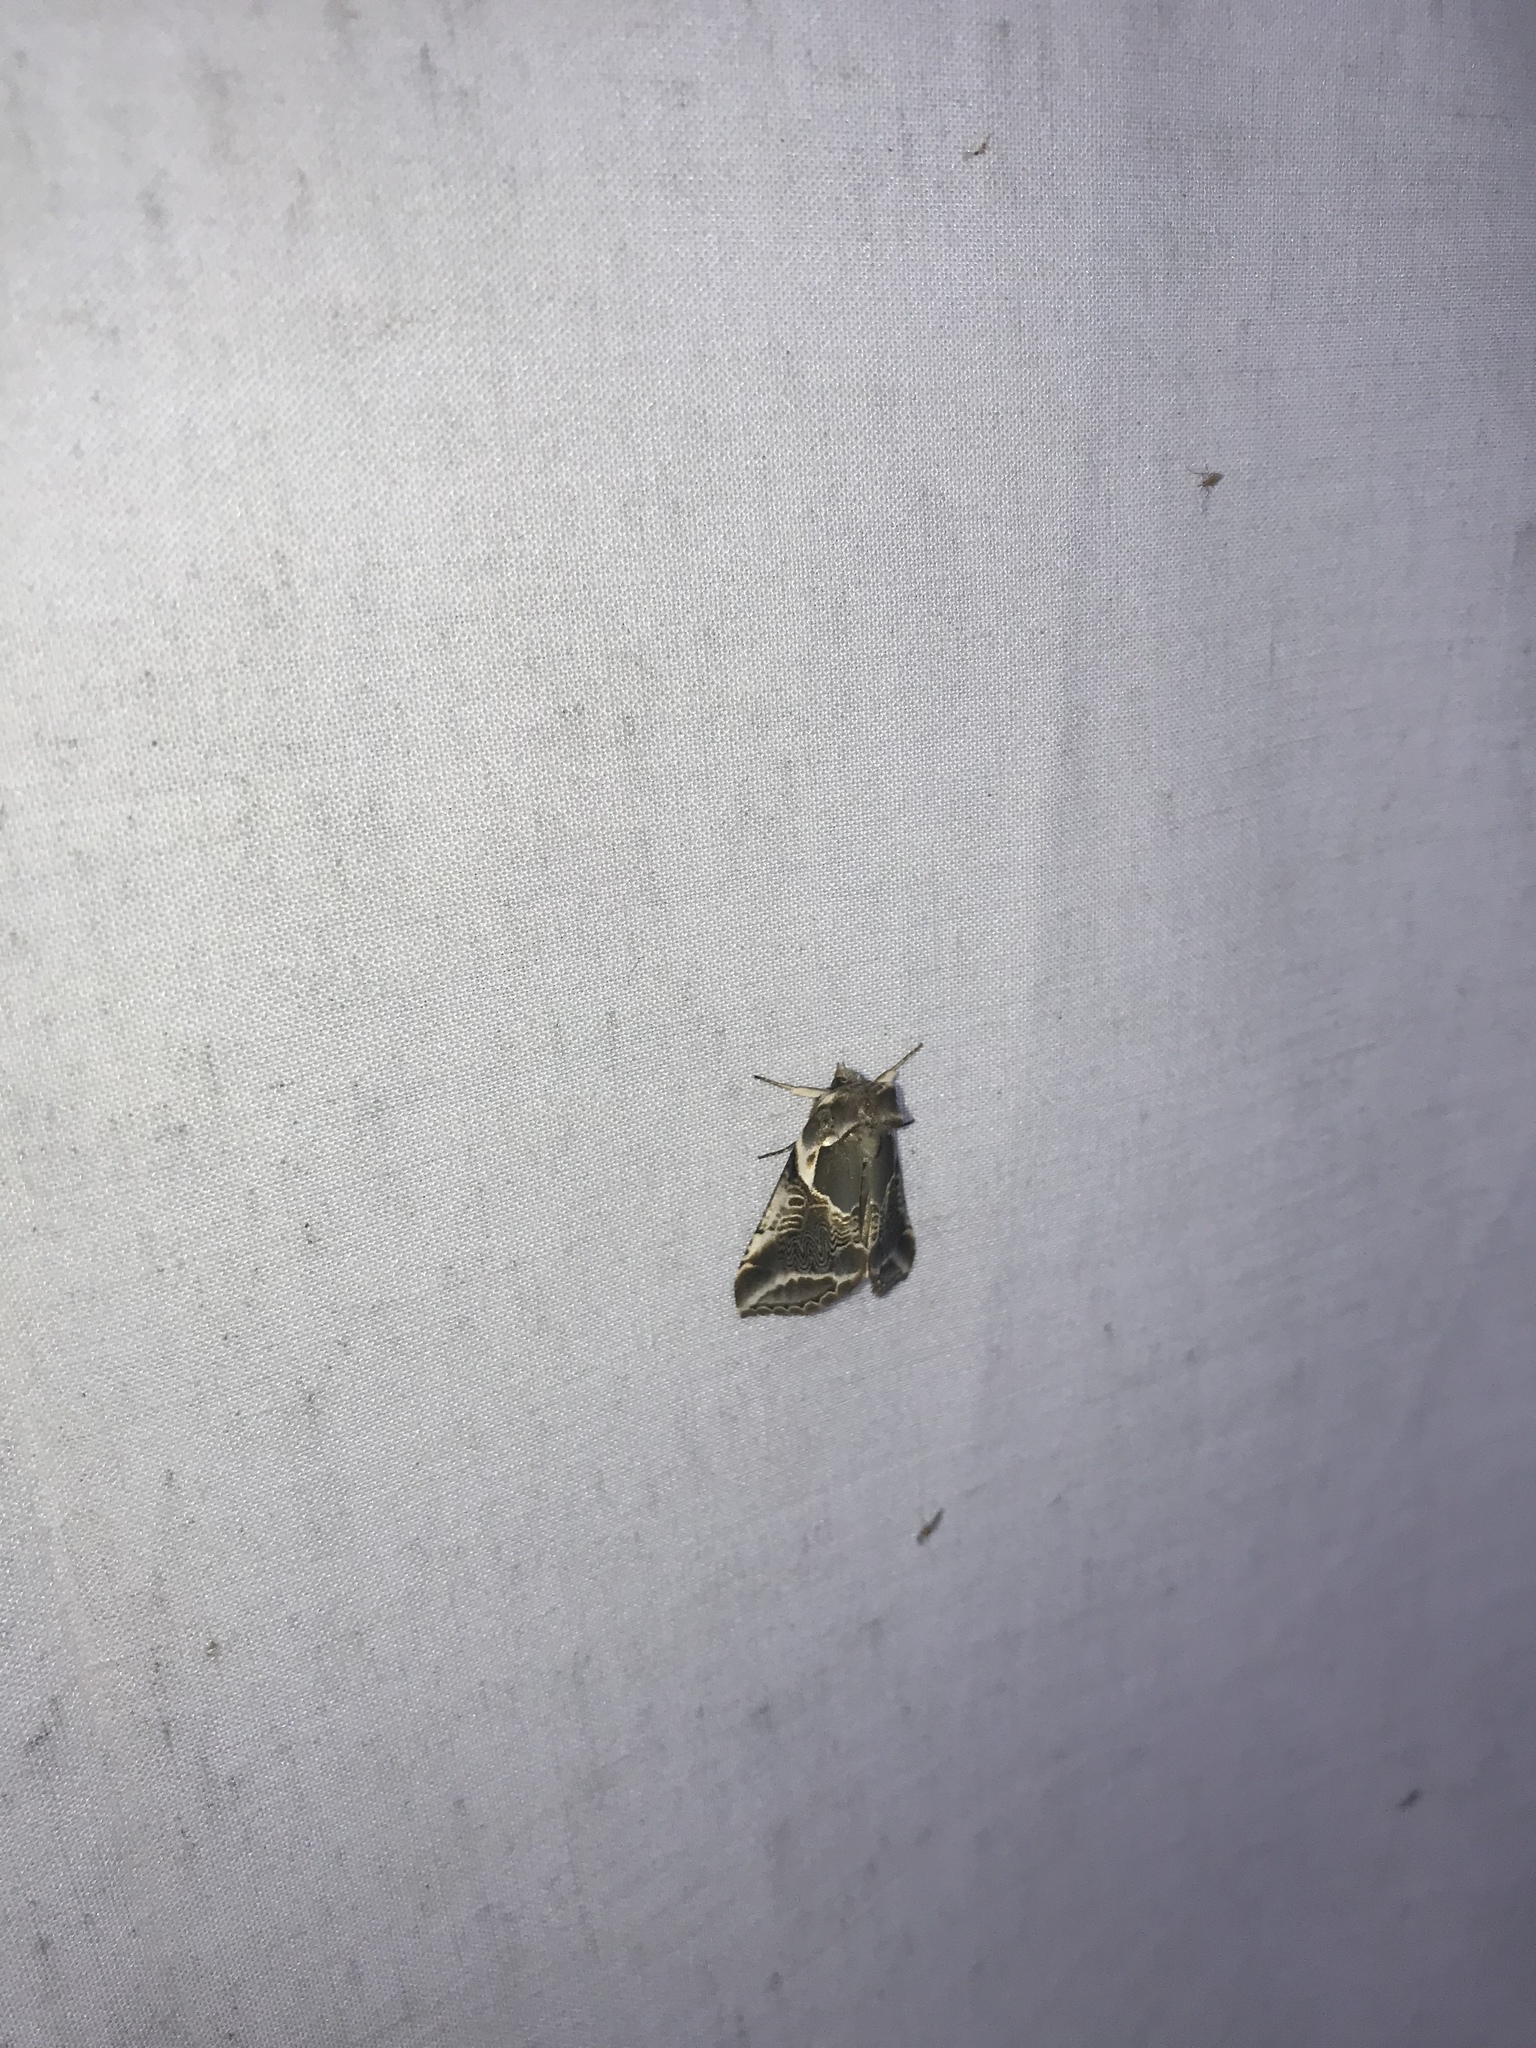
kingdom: Animalia
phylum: Arthropoda
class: Insecta
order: Lepidoptera
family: Drepanidae
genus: Habrosyne
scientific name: Habrosyne scripta
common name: Lettered habrosyne moth
